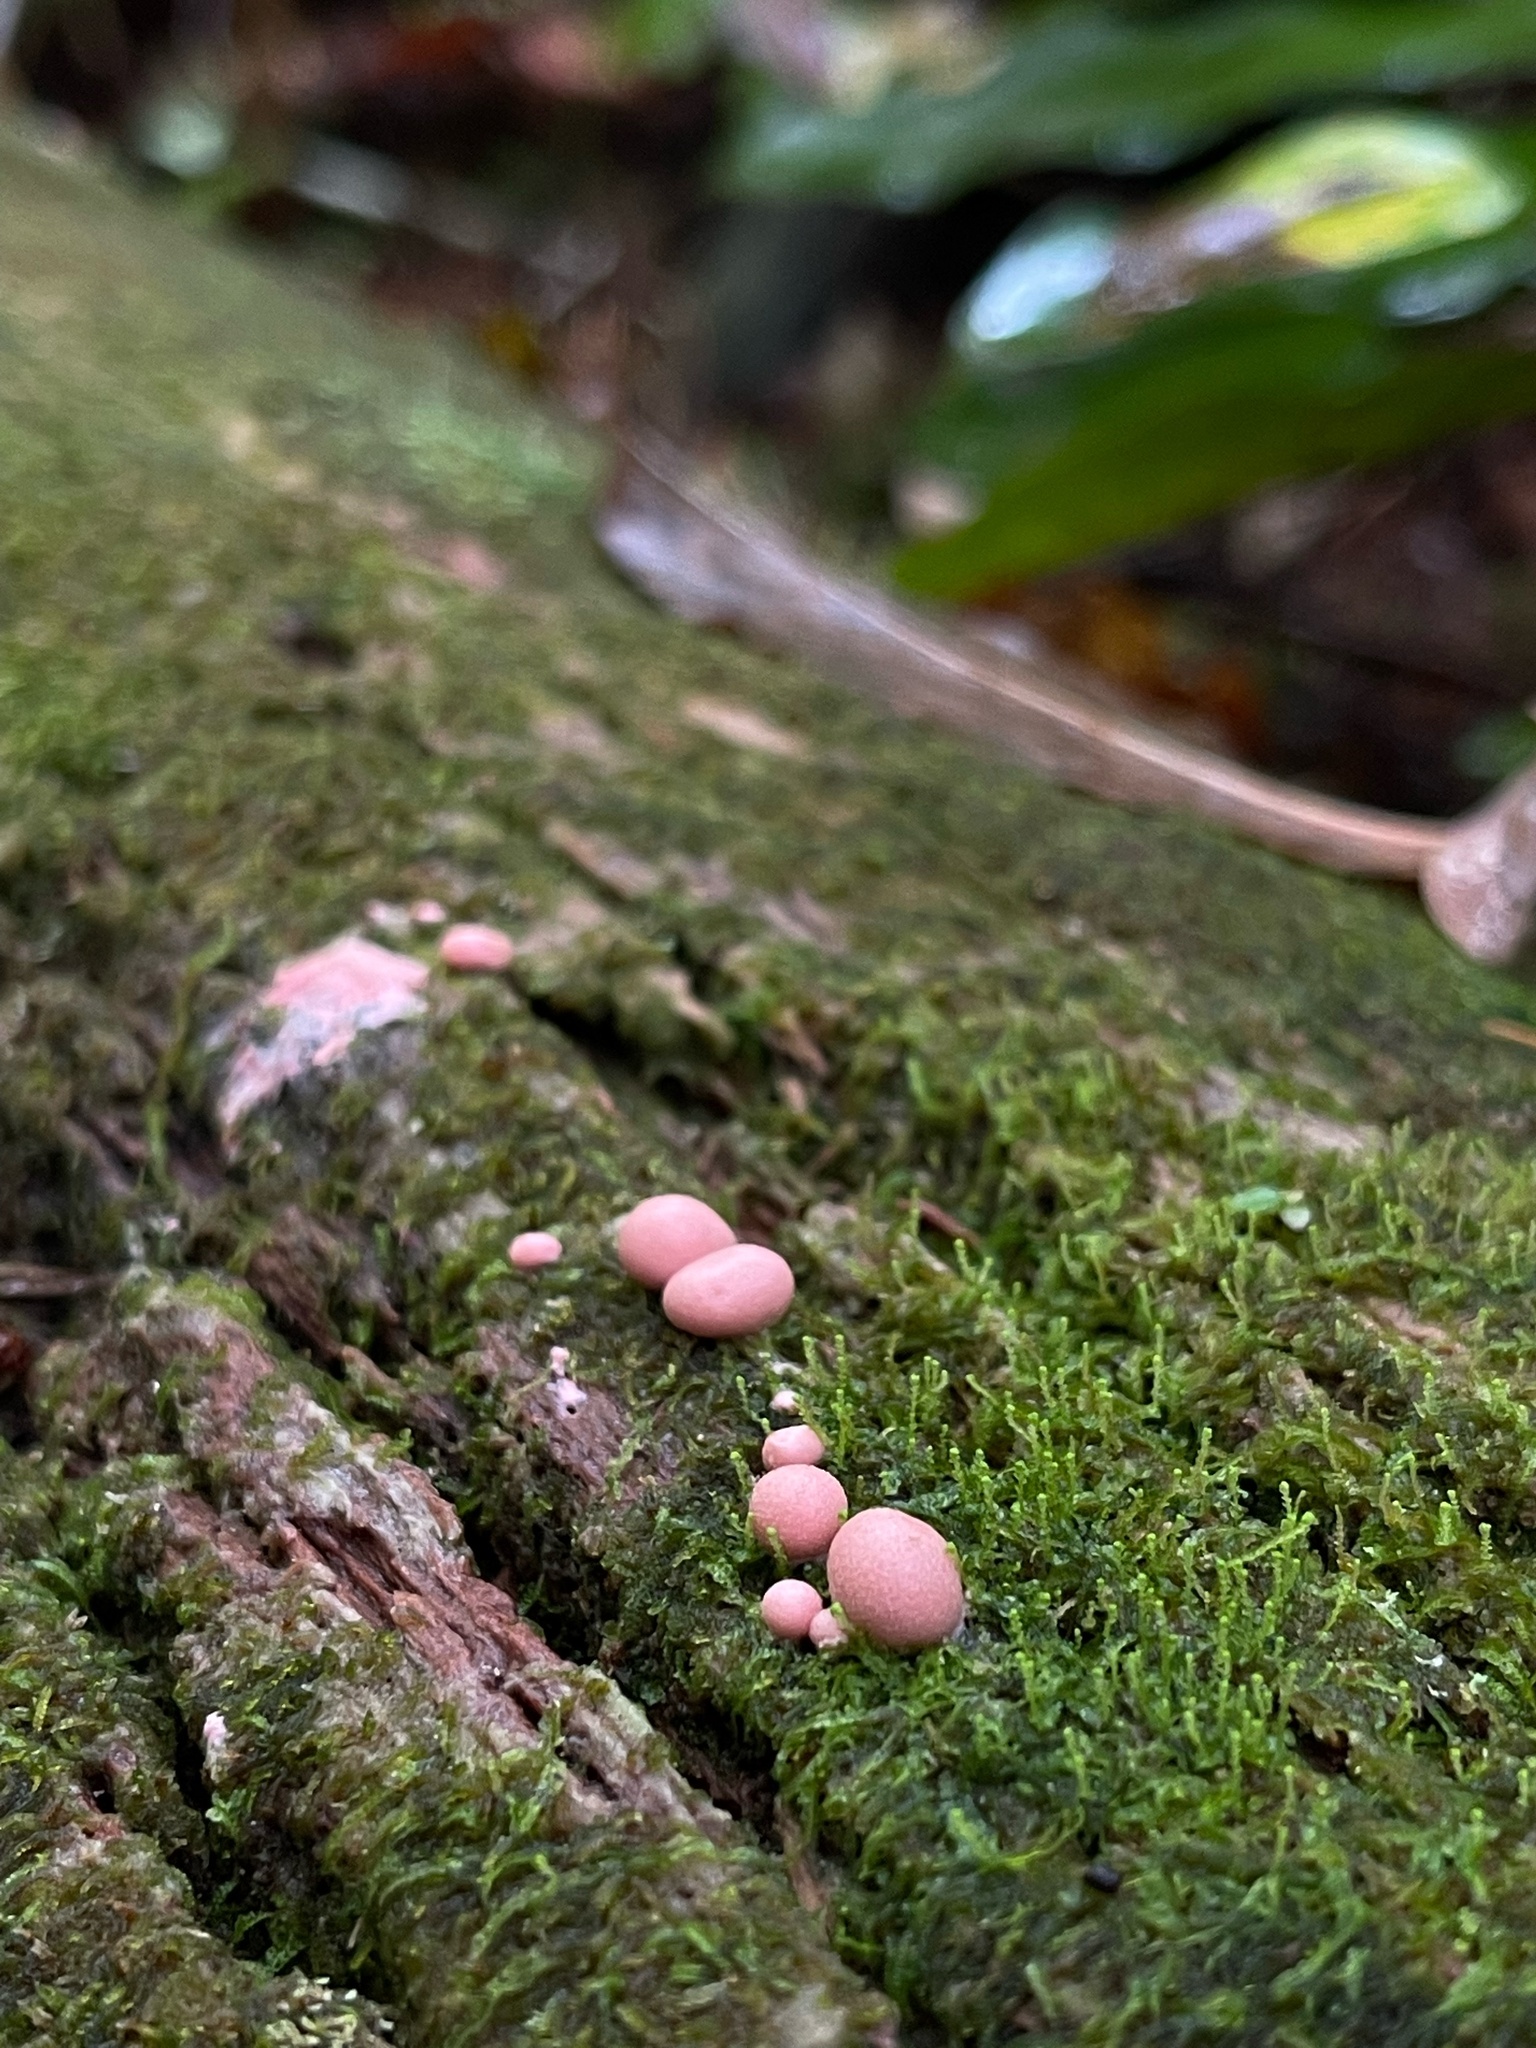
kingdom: Protozoa
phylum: Mycetozoa
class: Myxomycetes
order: Cribrariales
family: Tubiferaceae
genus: Lycogala
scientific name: Lycogala epidendrum
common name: Wolf's milk
